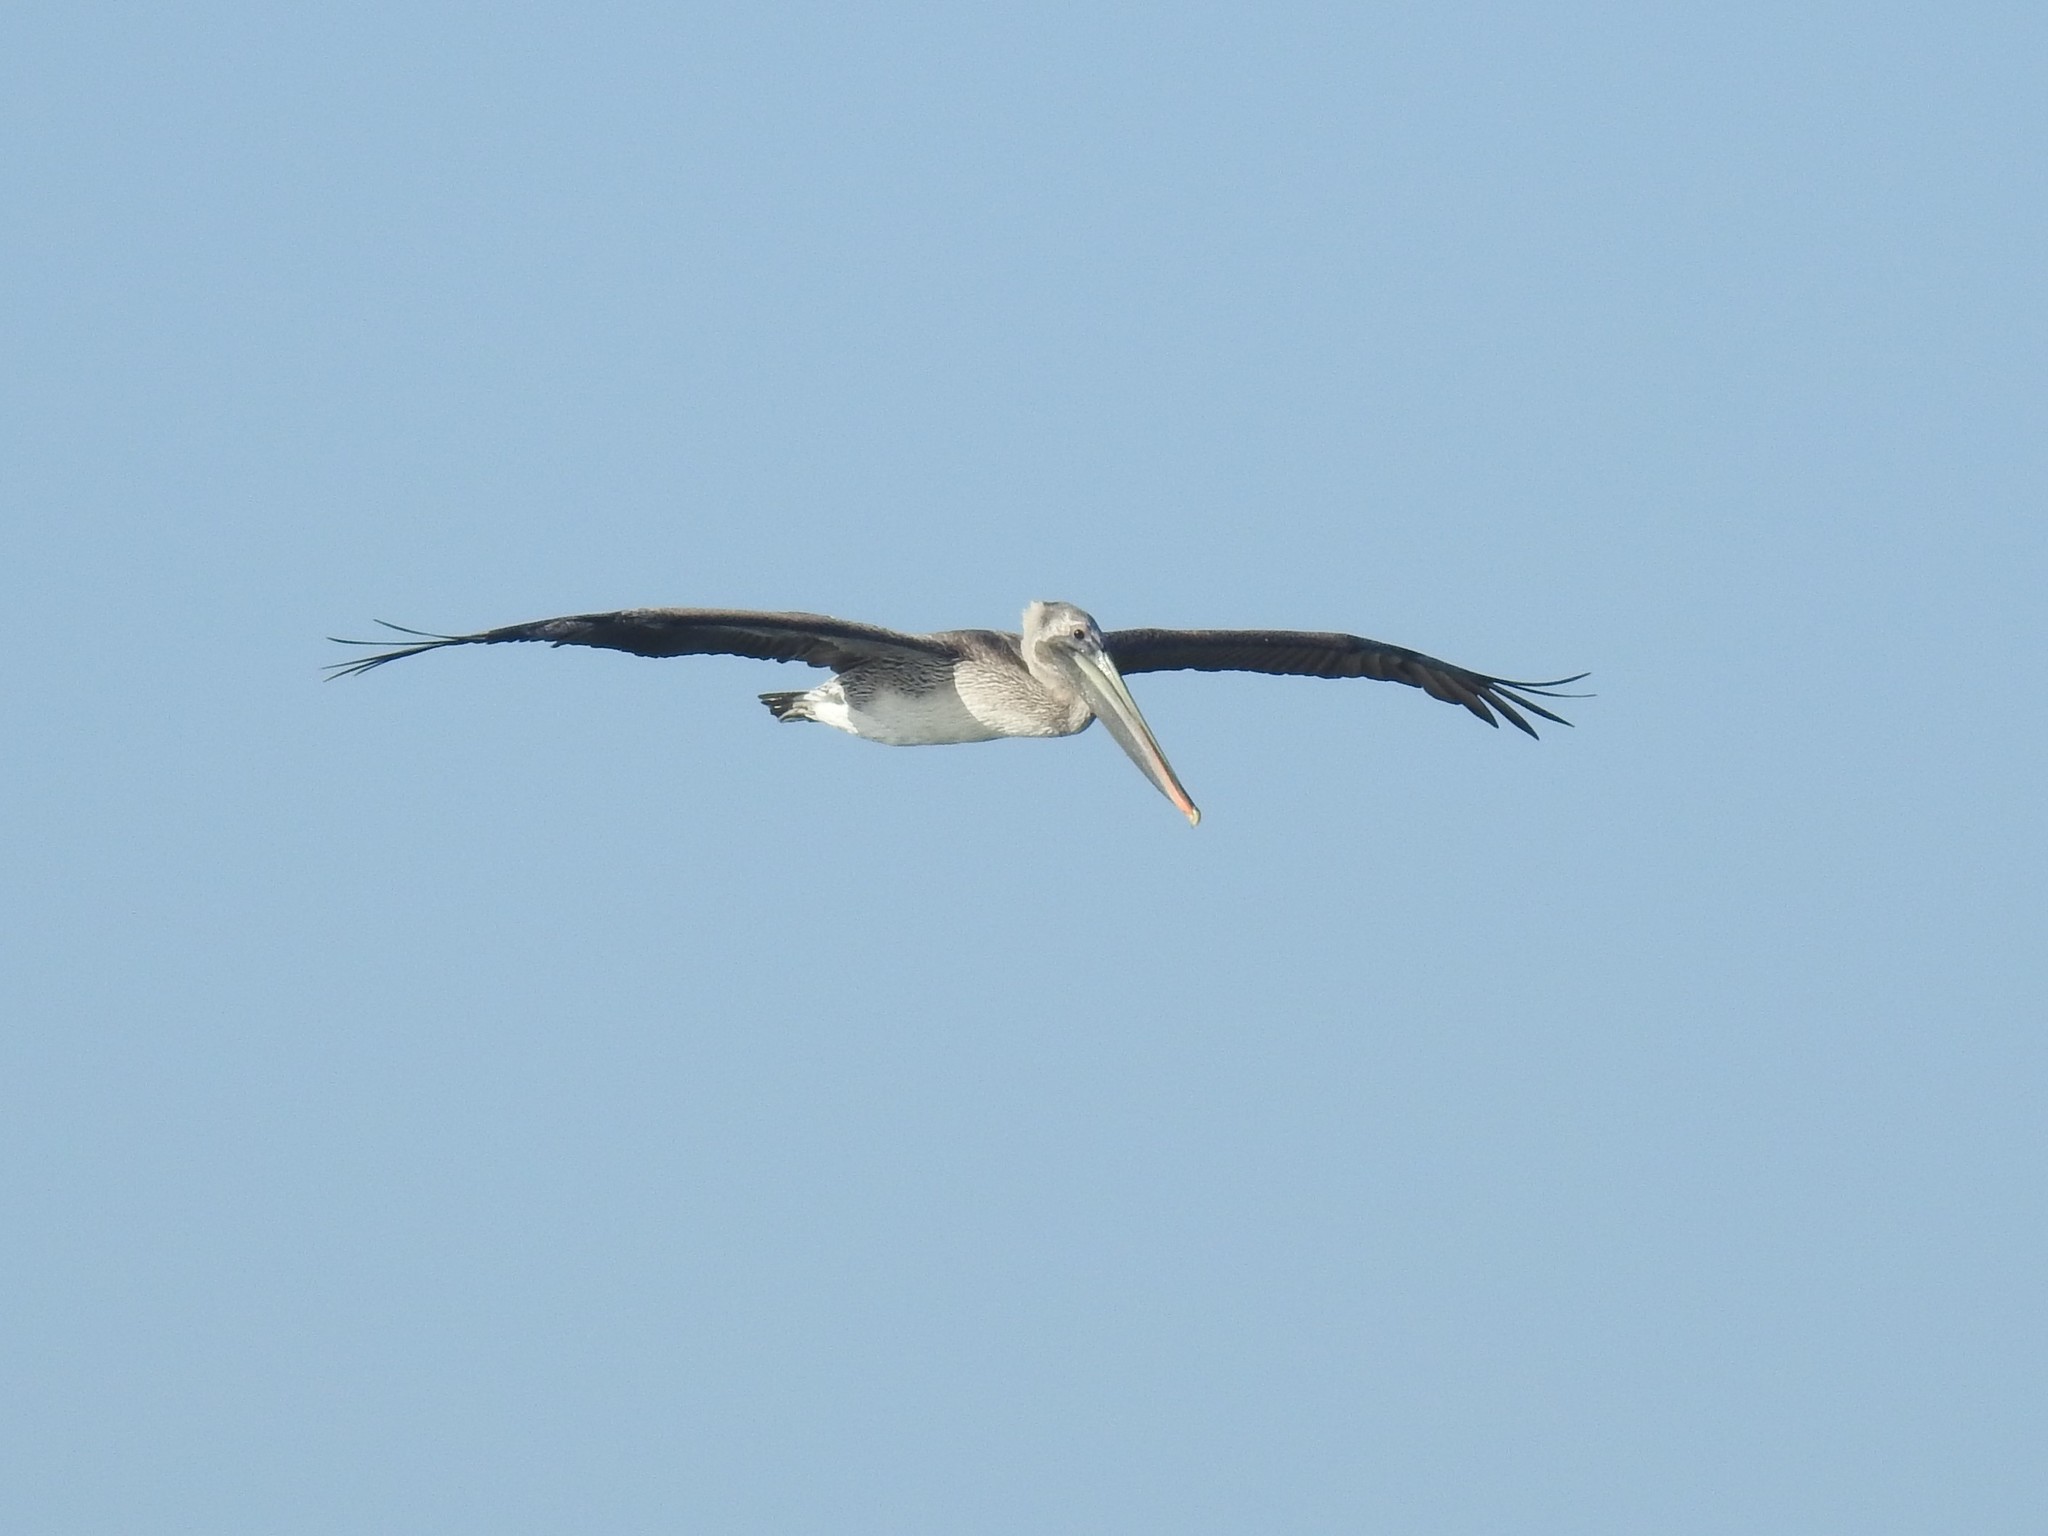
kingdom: Animalia
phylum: Chordata
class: Aves
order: Pelecaniformes
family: Pelecanidae
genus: Pelecanus
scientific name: Pelecanus occidentalis
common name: Brown pelican
